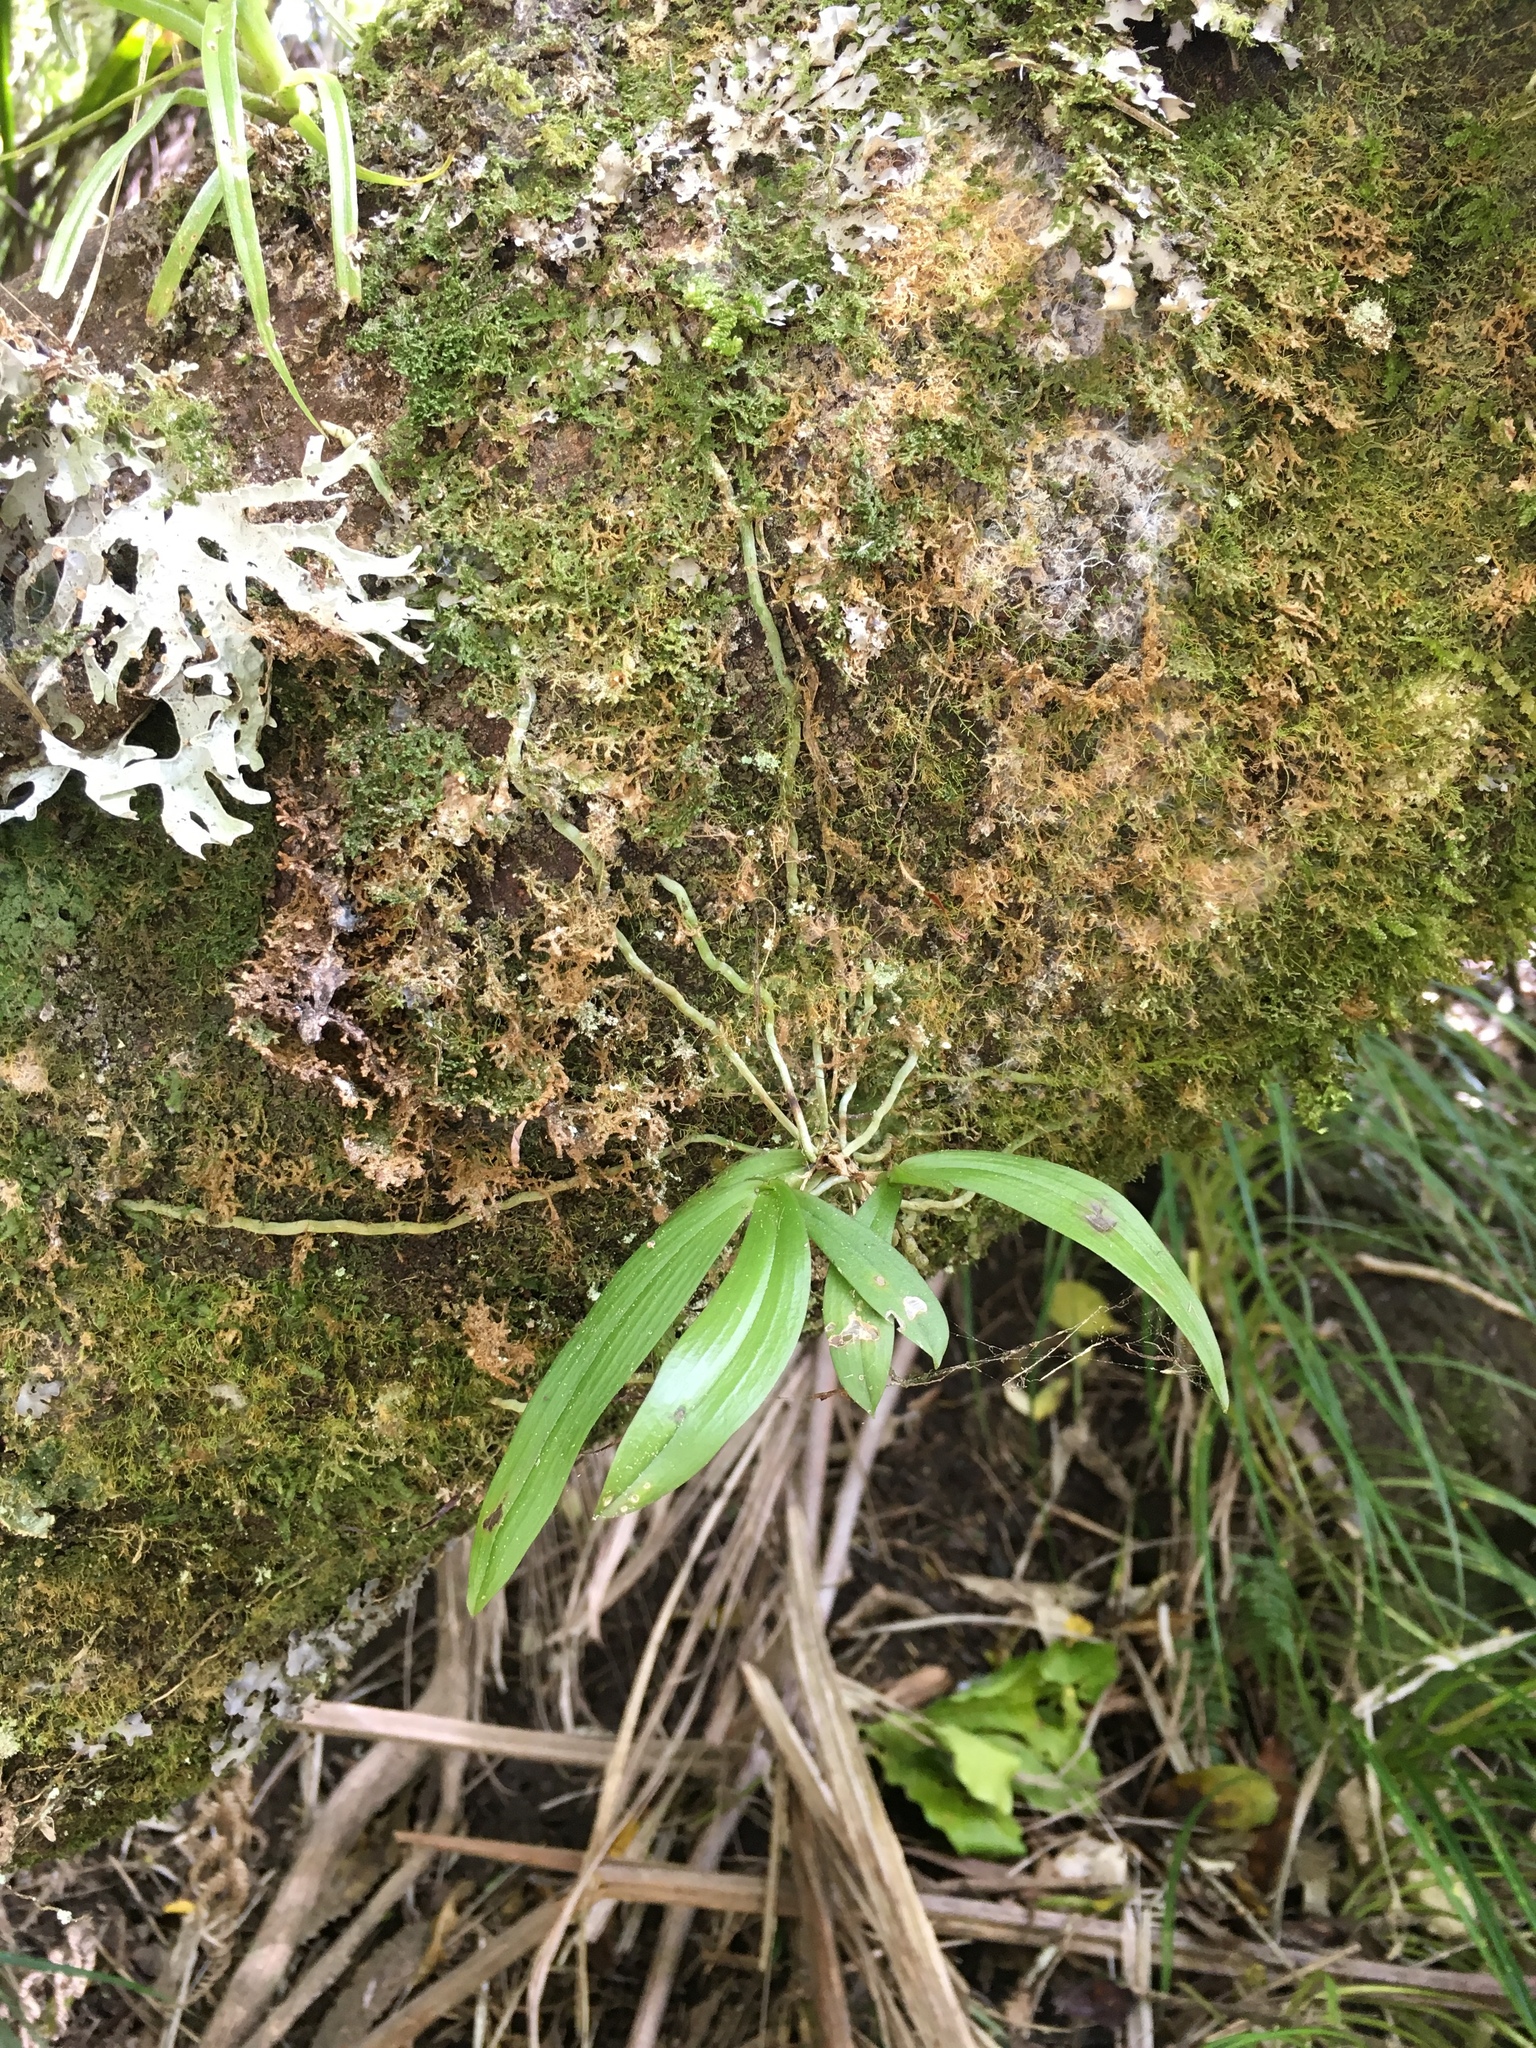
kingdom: Plantae
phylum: Tracheophyta
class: Liliopsida
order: Asparagales
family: Orchidaceae
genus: Drymoanthus
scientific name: Drymoanthus adversus
